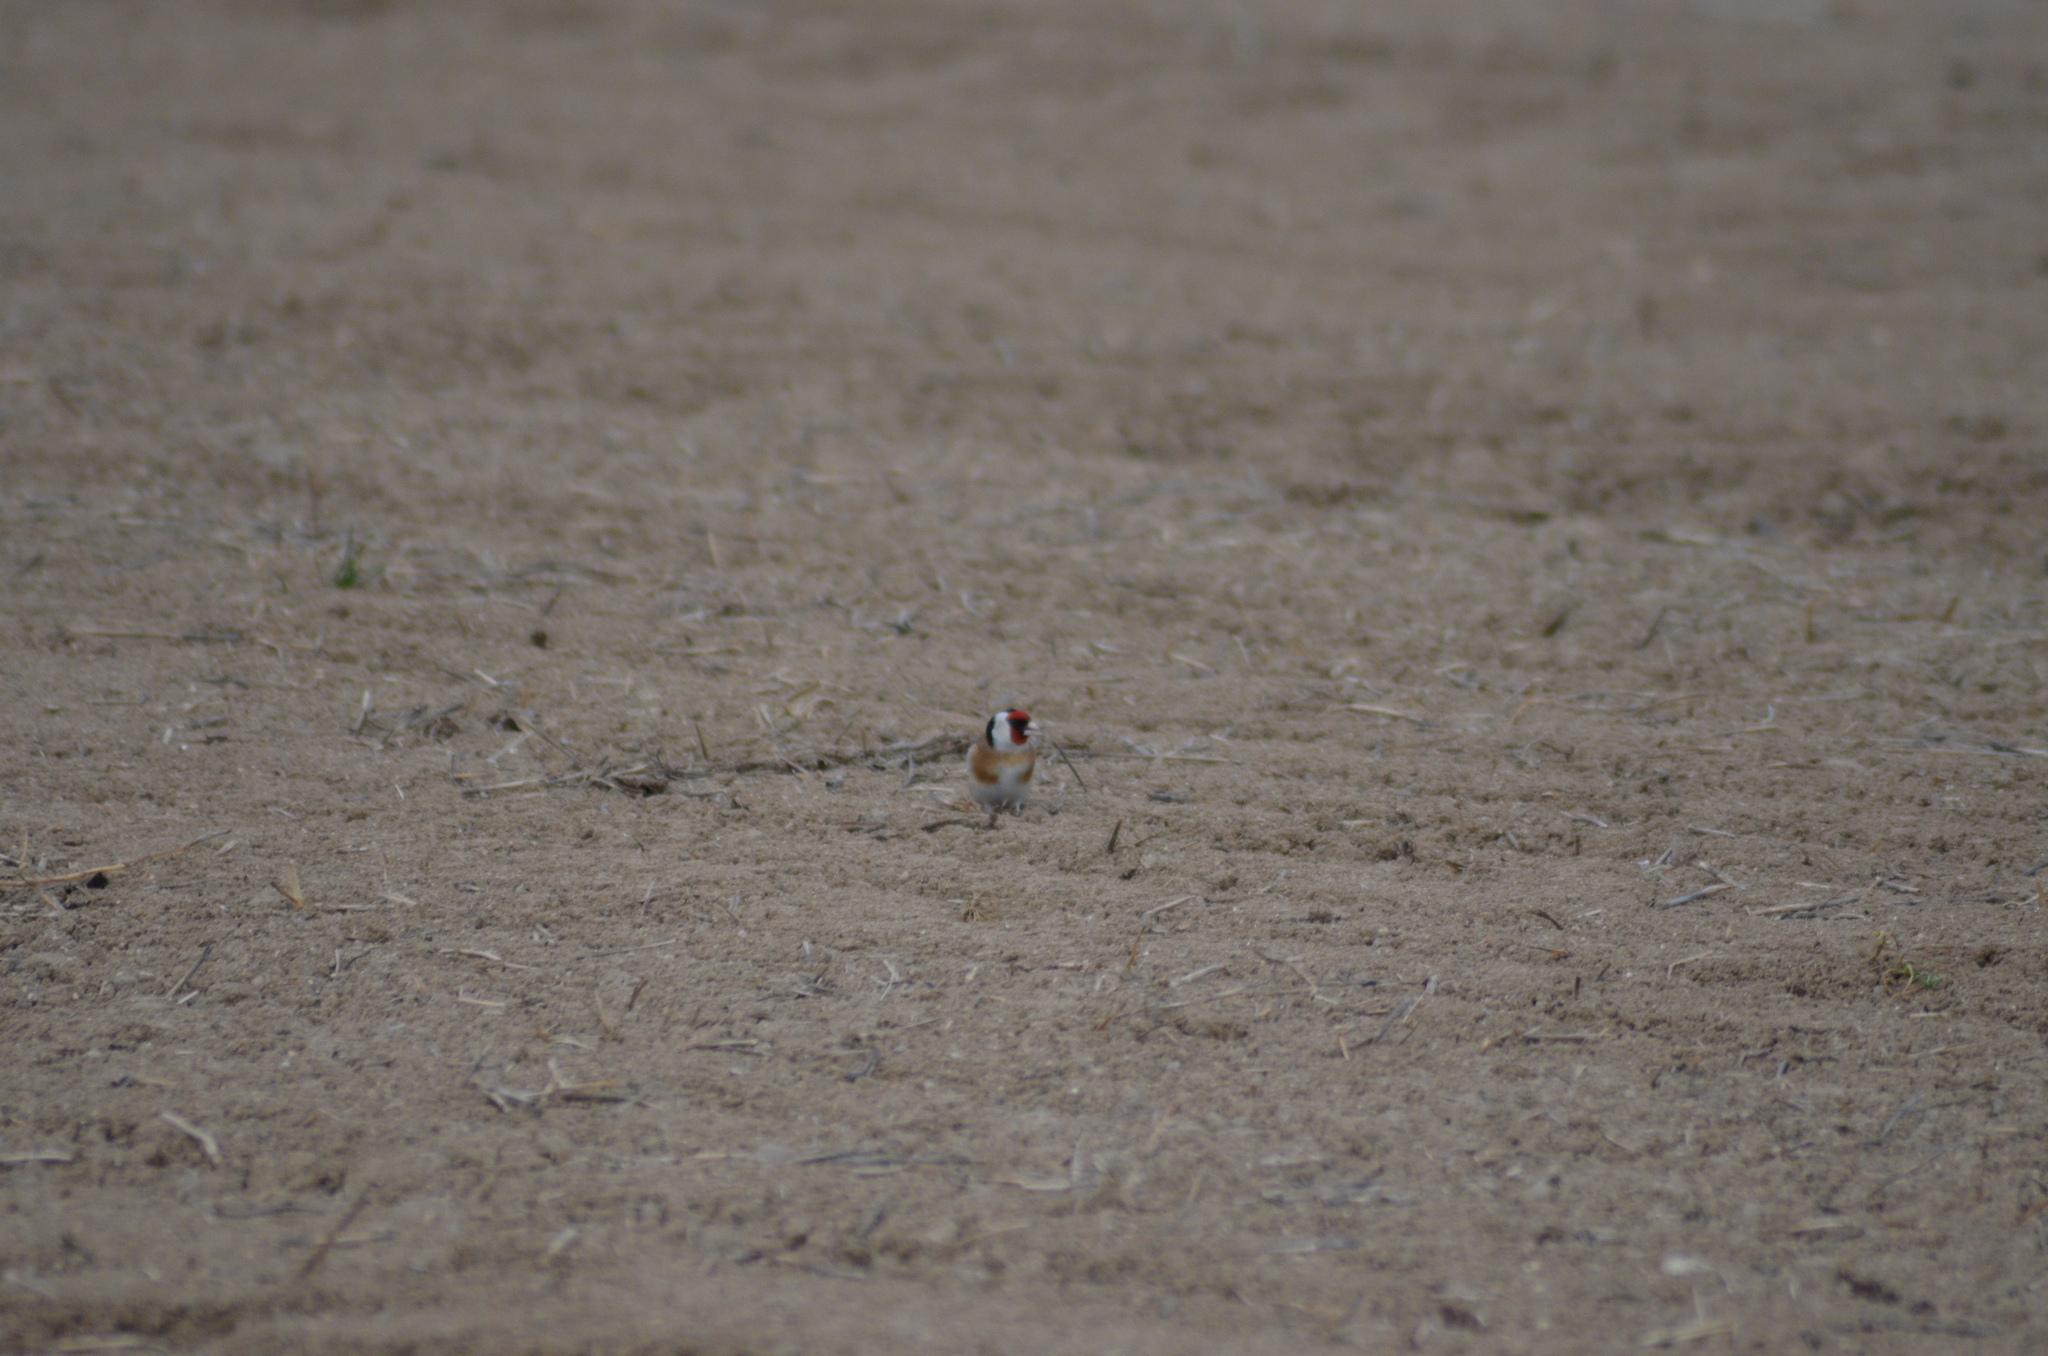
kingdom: Animalia
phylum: Chordata
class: Aves
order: Passeriformes
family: Fringillidae
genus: Carduelis
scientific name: Carduelis carduelis
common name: European goldfinch
